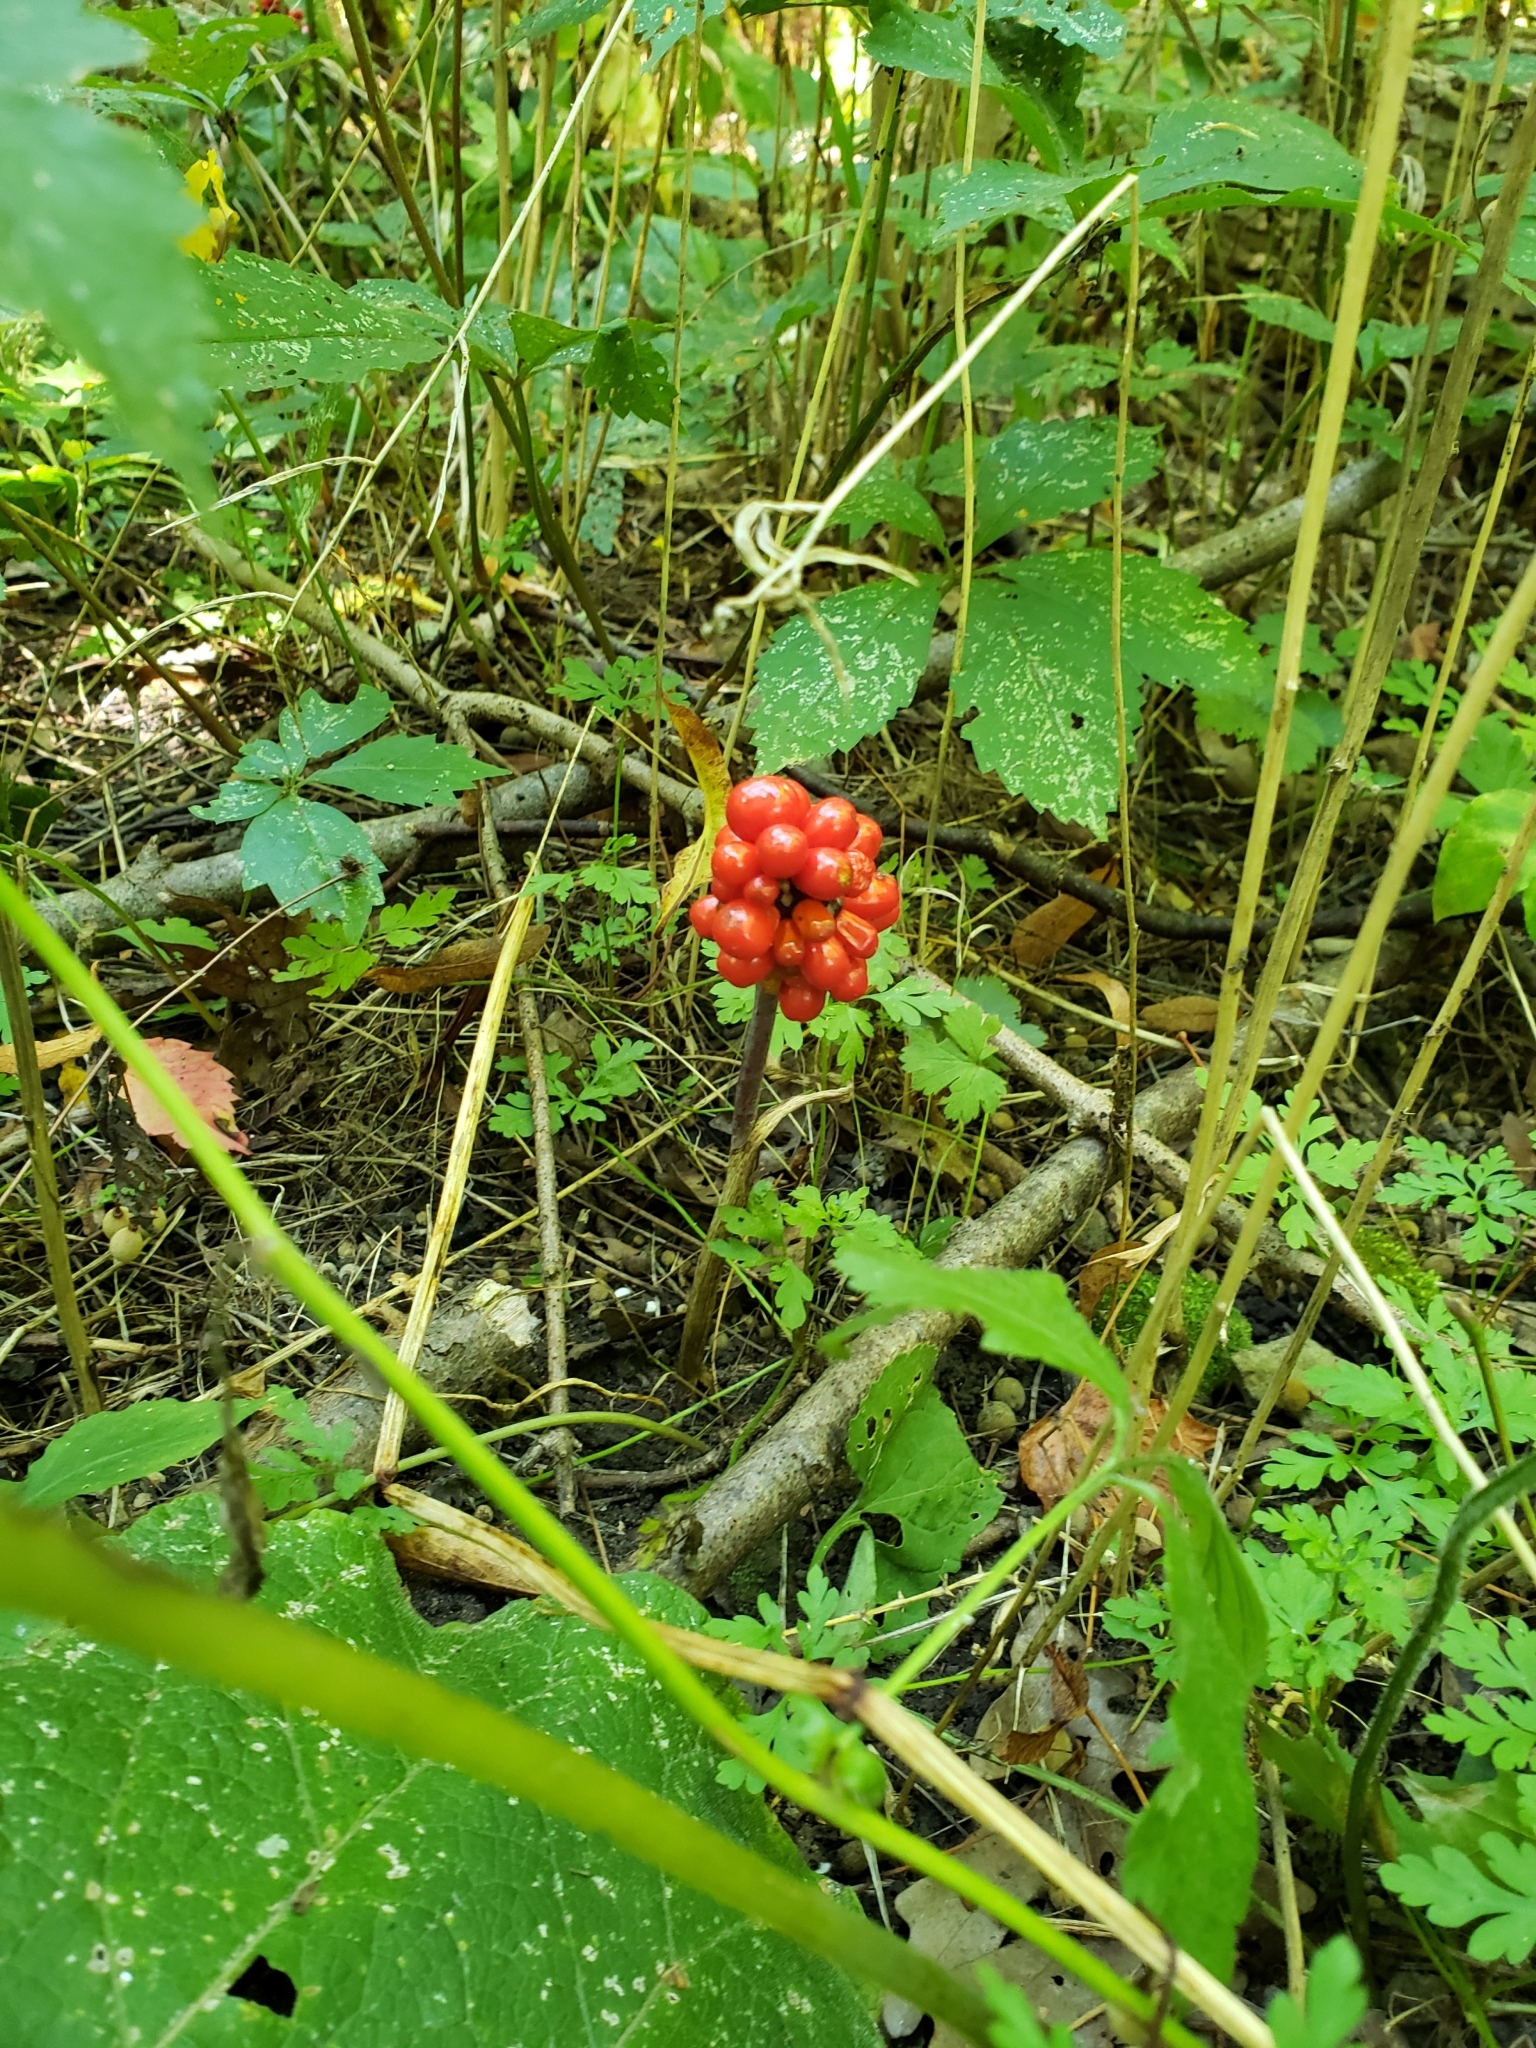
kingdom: Plantae
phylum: Tracheophyta
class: Liliopsida
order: Alismatales
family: Araceae
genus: Arisaema
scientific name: Arisaema triphyllum
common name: Jack-in-the-pulpit
